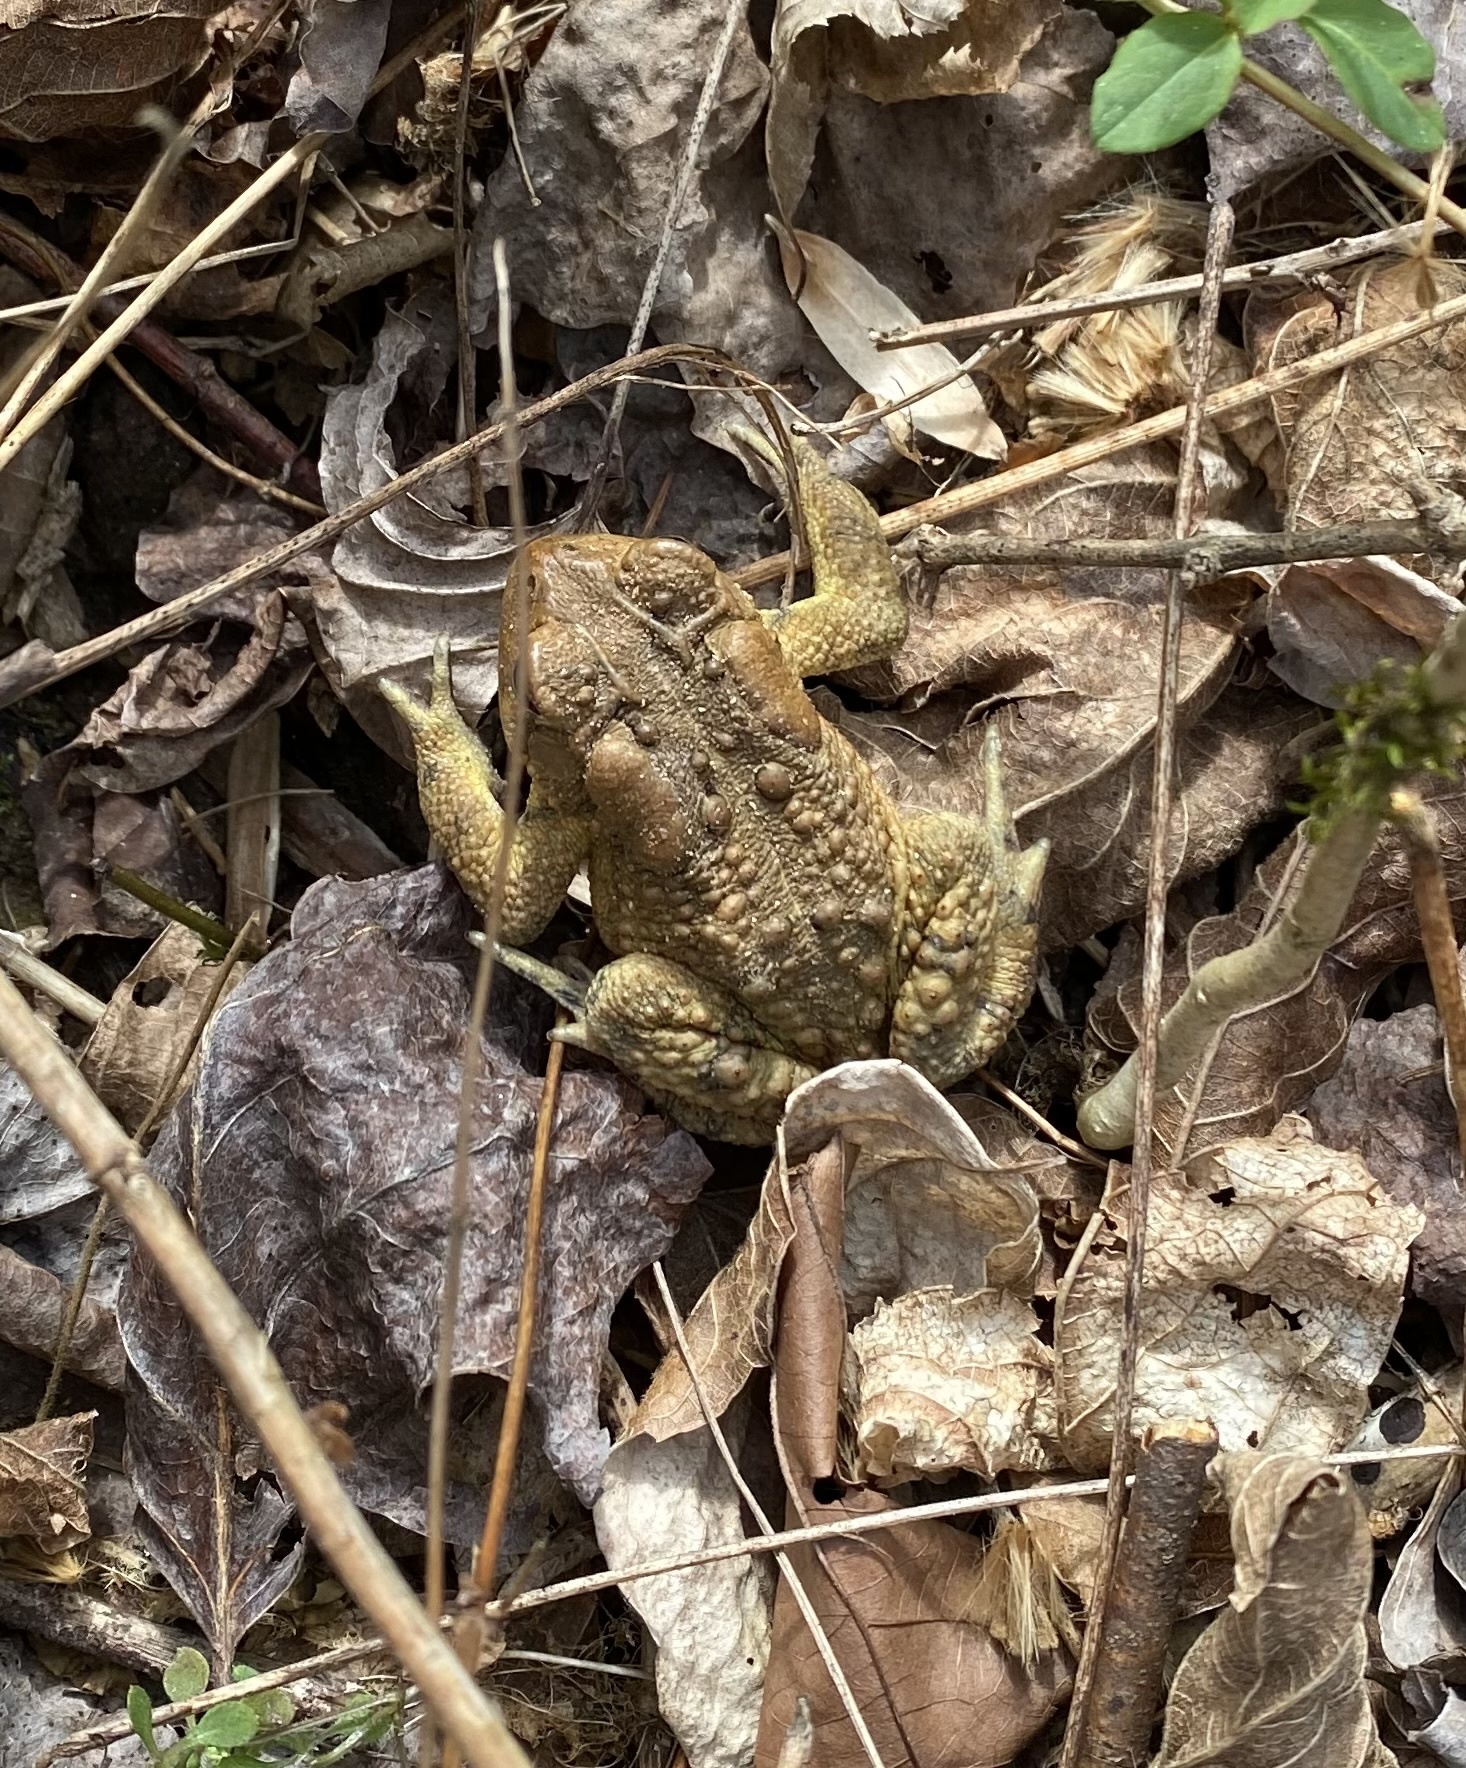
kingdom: Animalia
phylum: Chordata
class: Amphibia
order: Anura
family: Bufonidae
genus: Anaxyrus
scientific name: Anaxyrus americanus
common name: American toad
